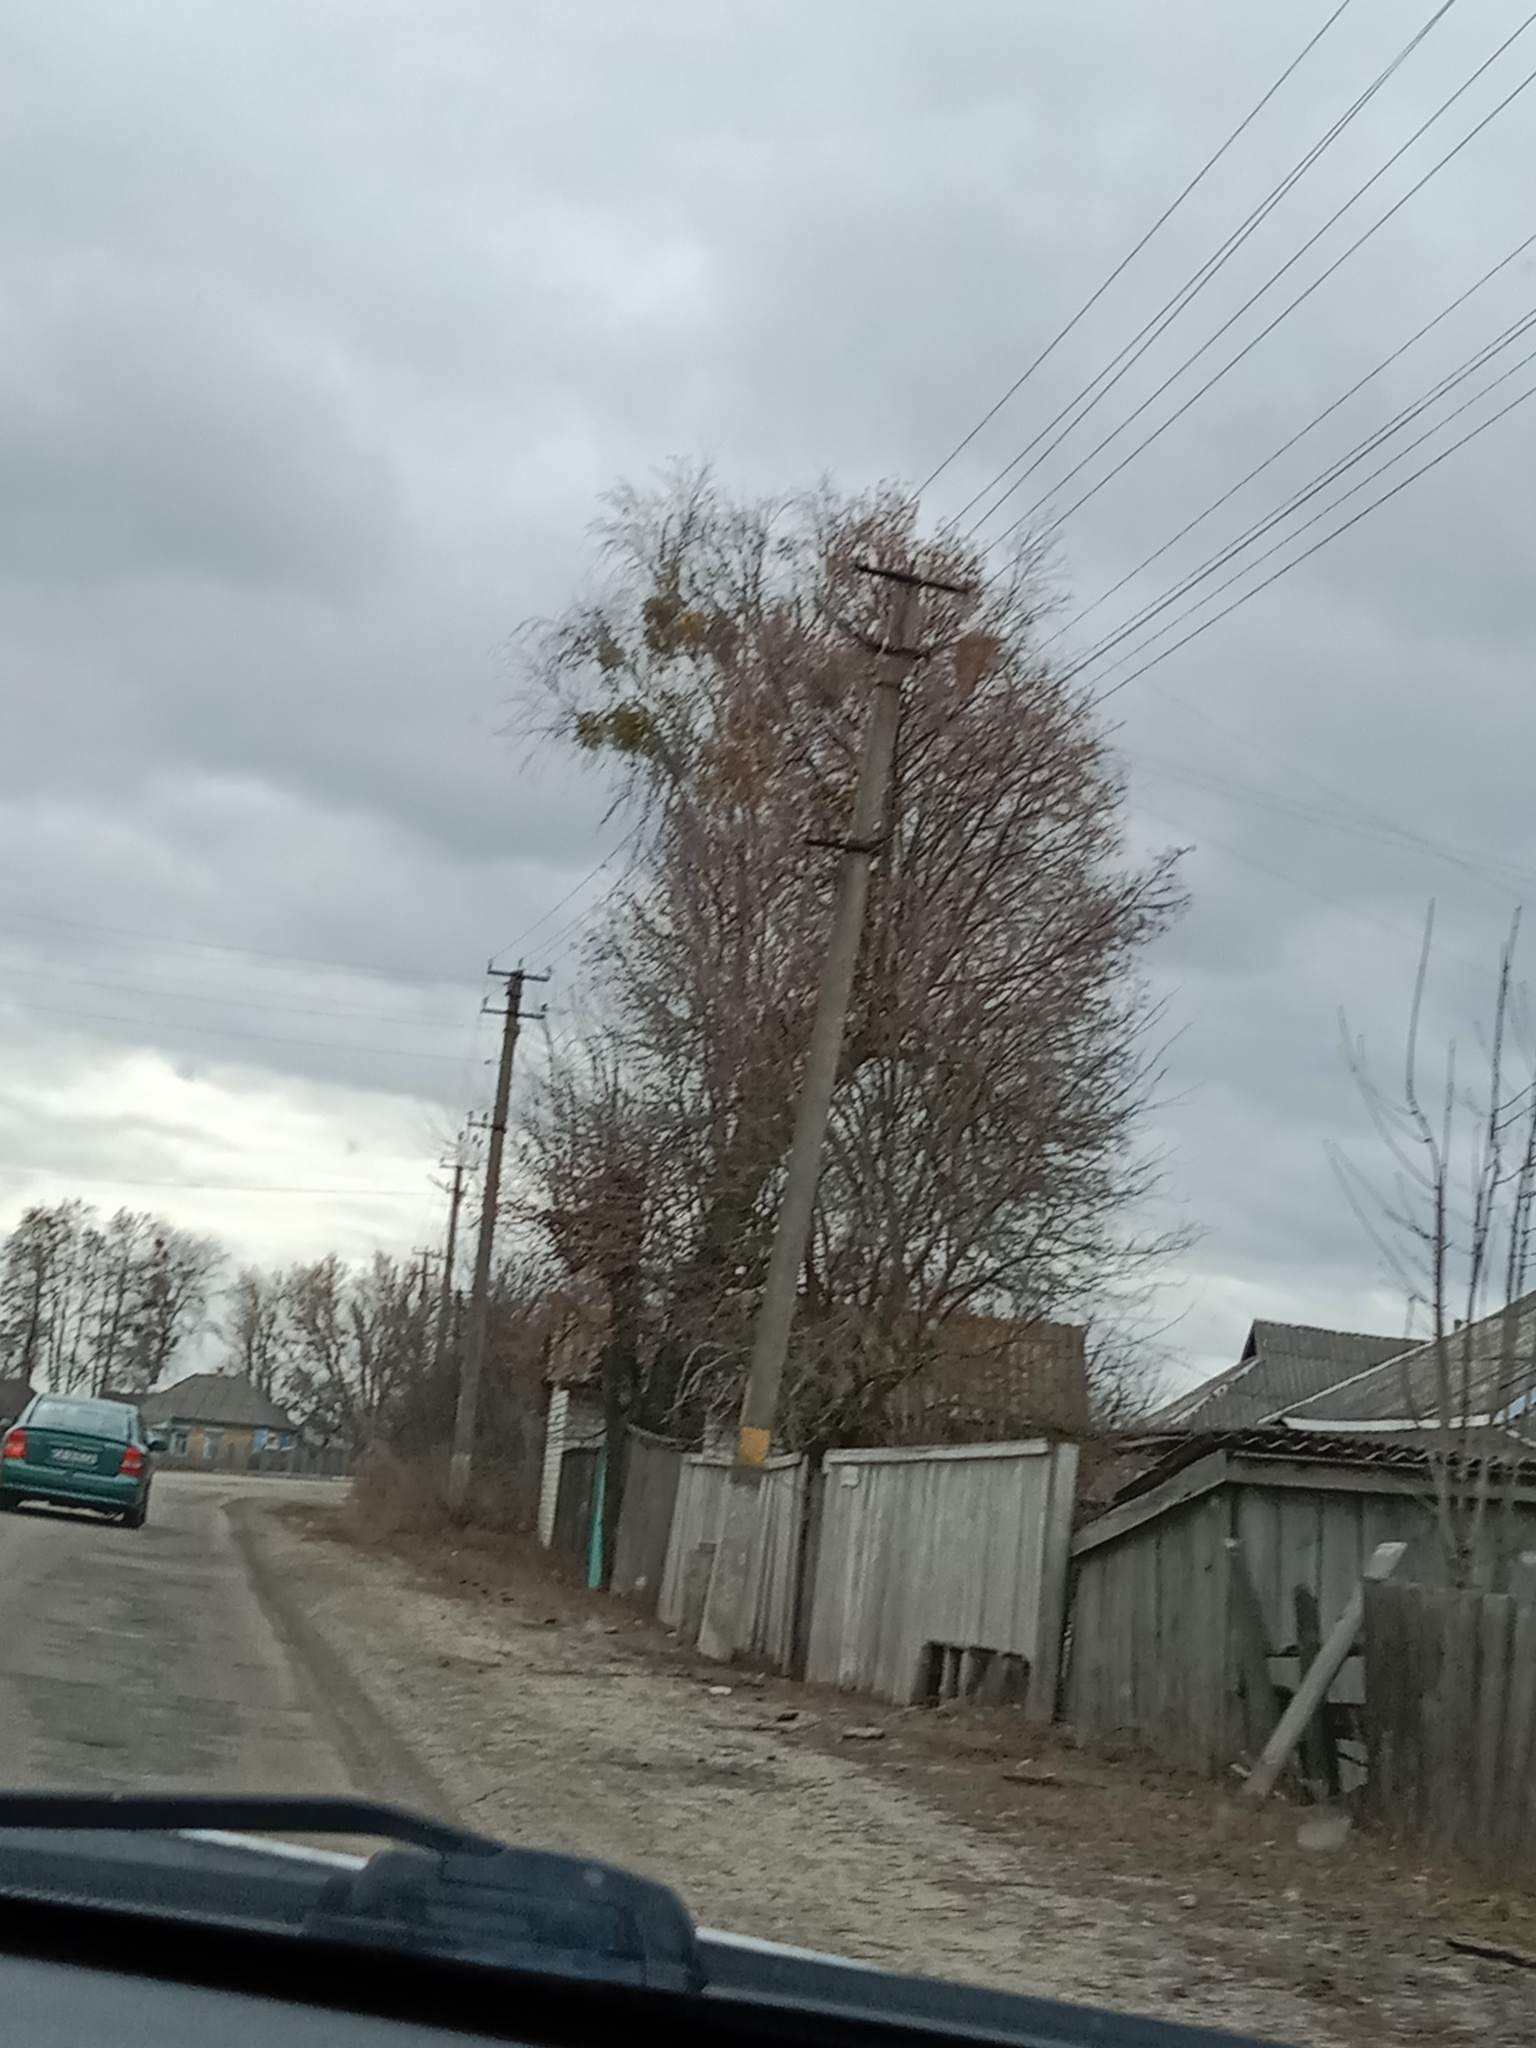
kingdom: Plantae
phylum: Tracheophyta
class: Magnoliopsida
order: Santalales
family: Viscaceae
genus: Viscum
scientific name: Viscum album
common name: Mistletoe
